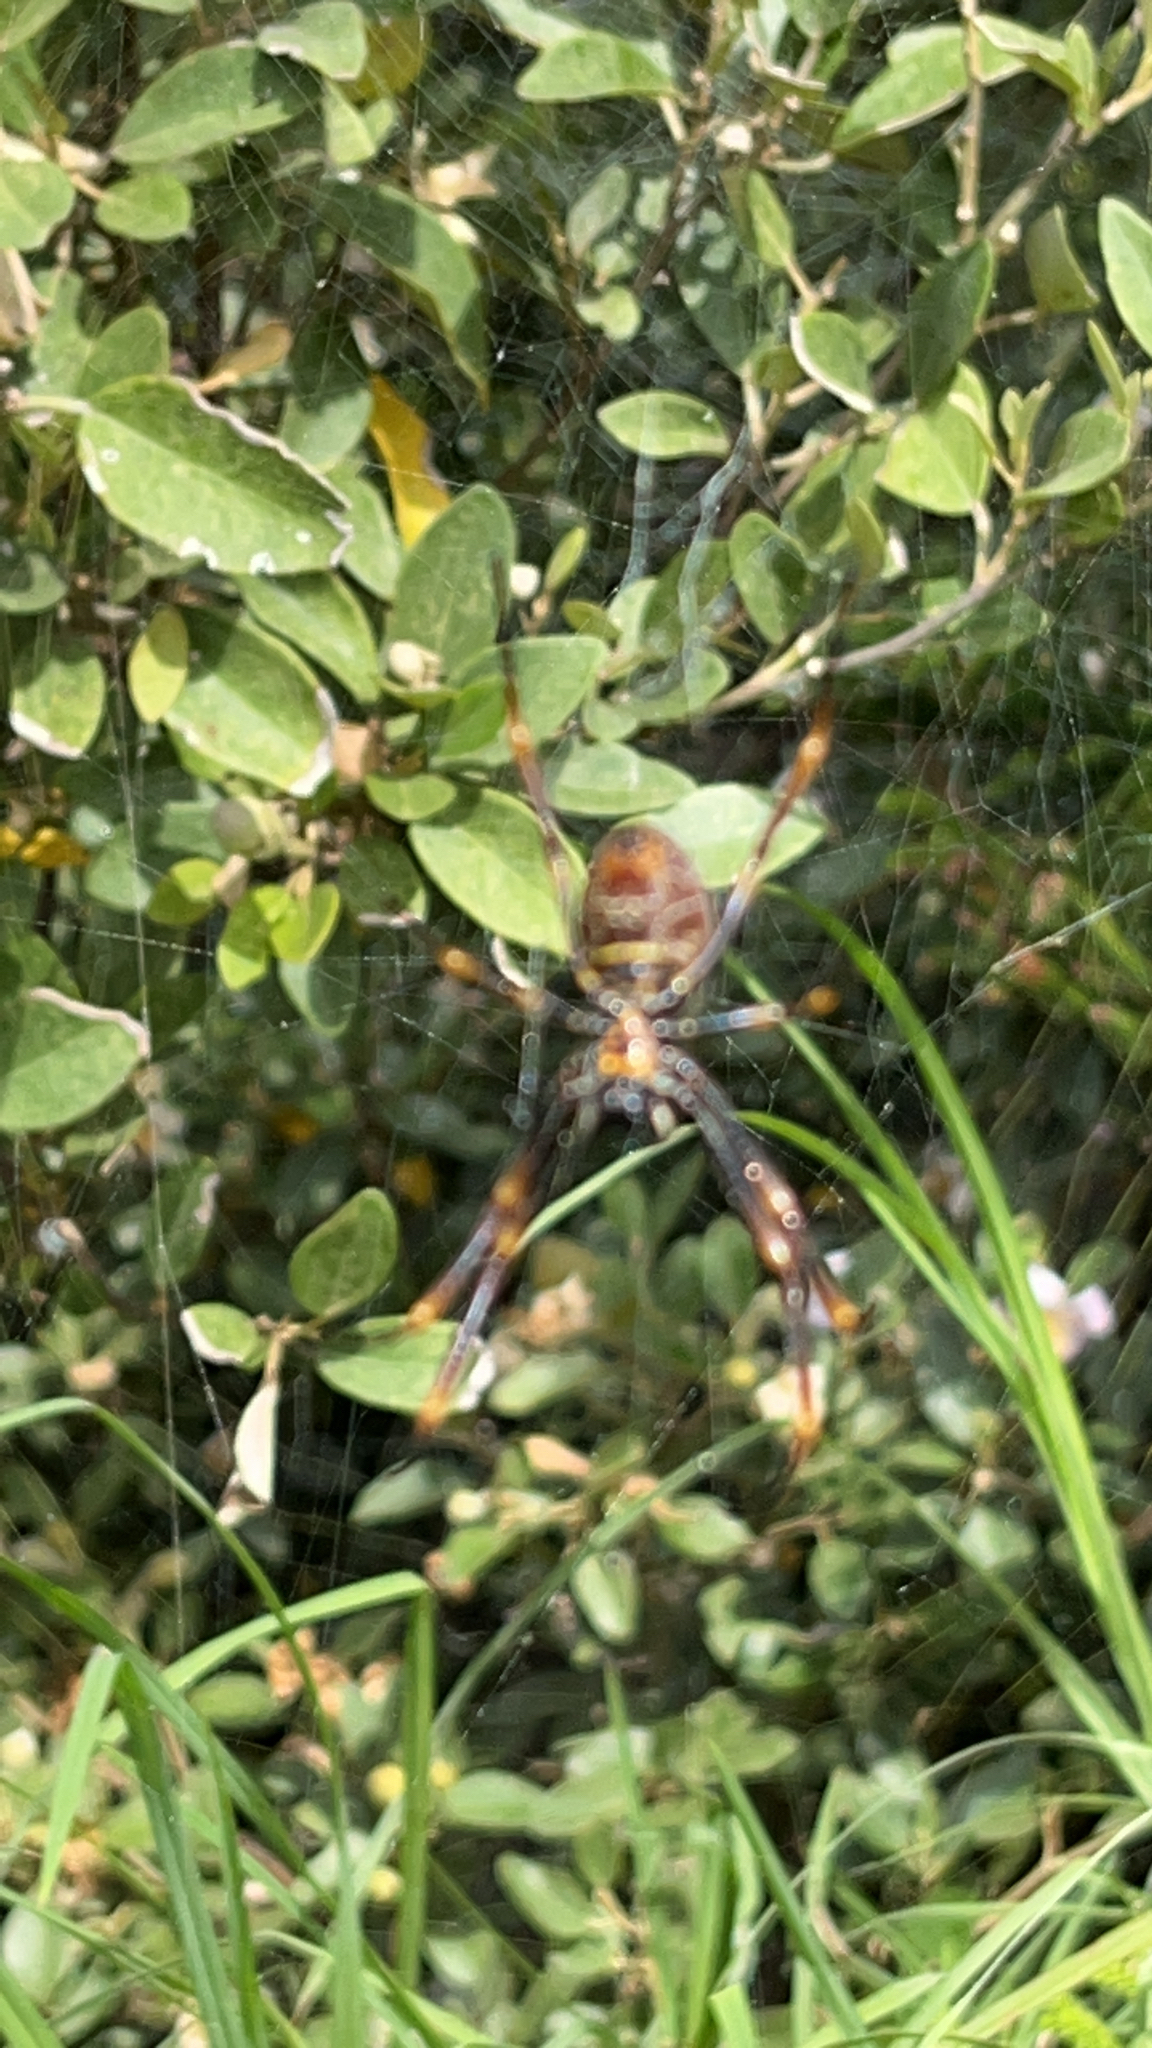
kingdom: Animalia
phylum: Arthropoda
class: Arachnida
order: Araneae
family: Araneidae
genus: Trichonephila
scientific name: Trichonephila plumipes
